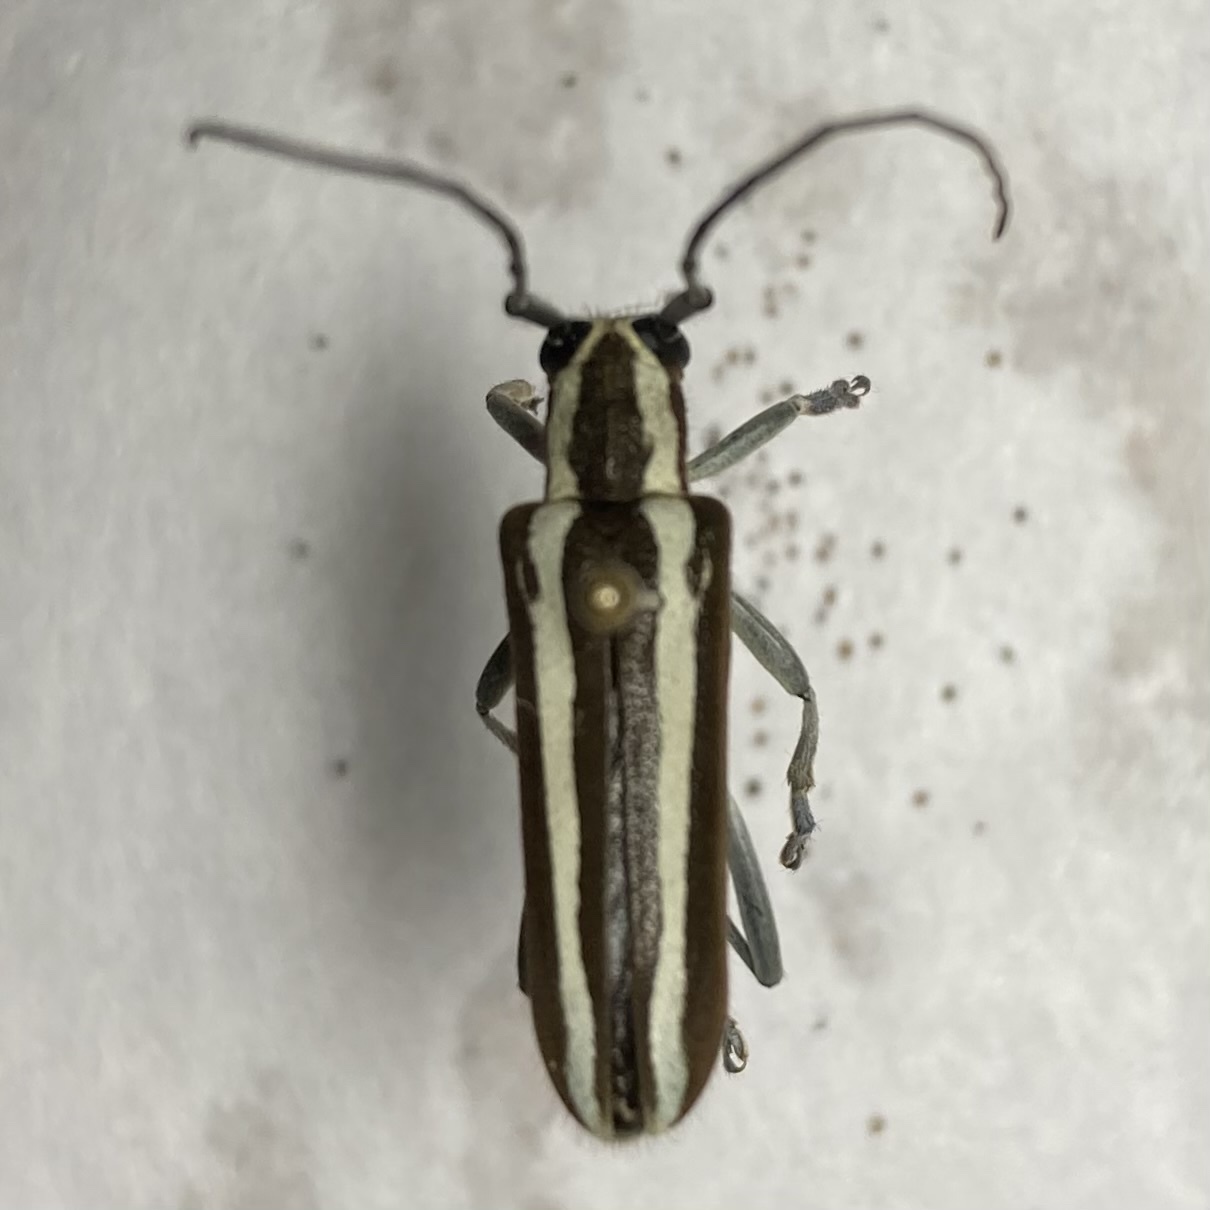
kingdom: Animalia
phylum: Arthropoda
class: Insecta
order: Coleoptera
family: Cerambycidae
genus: Saperda
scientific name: Saperda candida
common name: Round-headed borer
